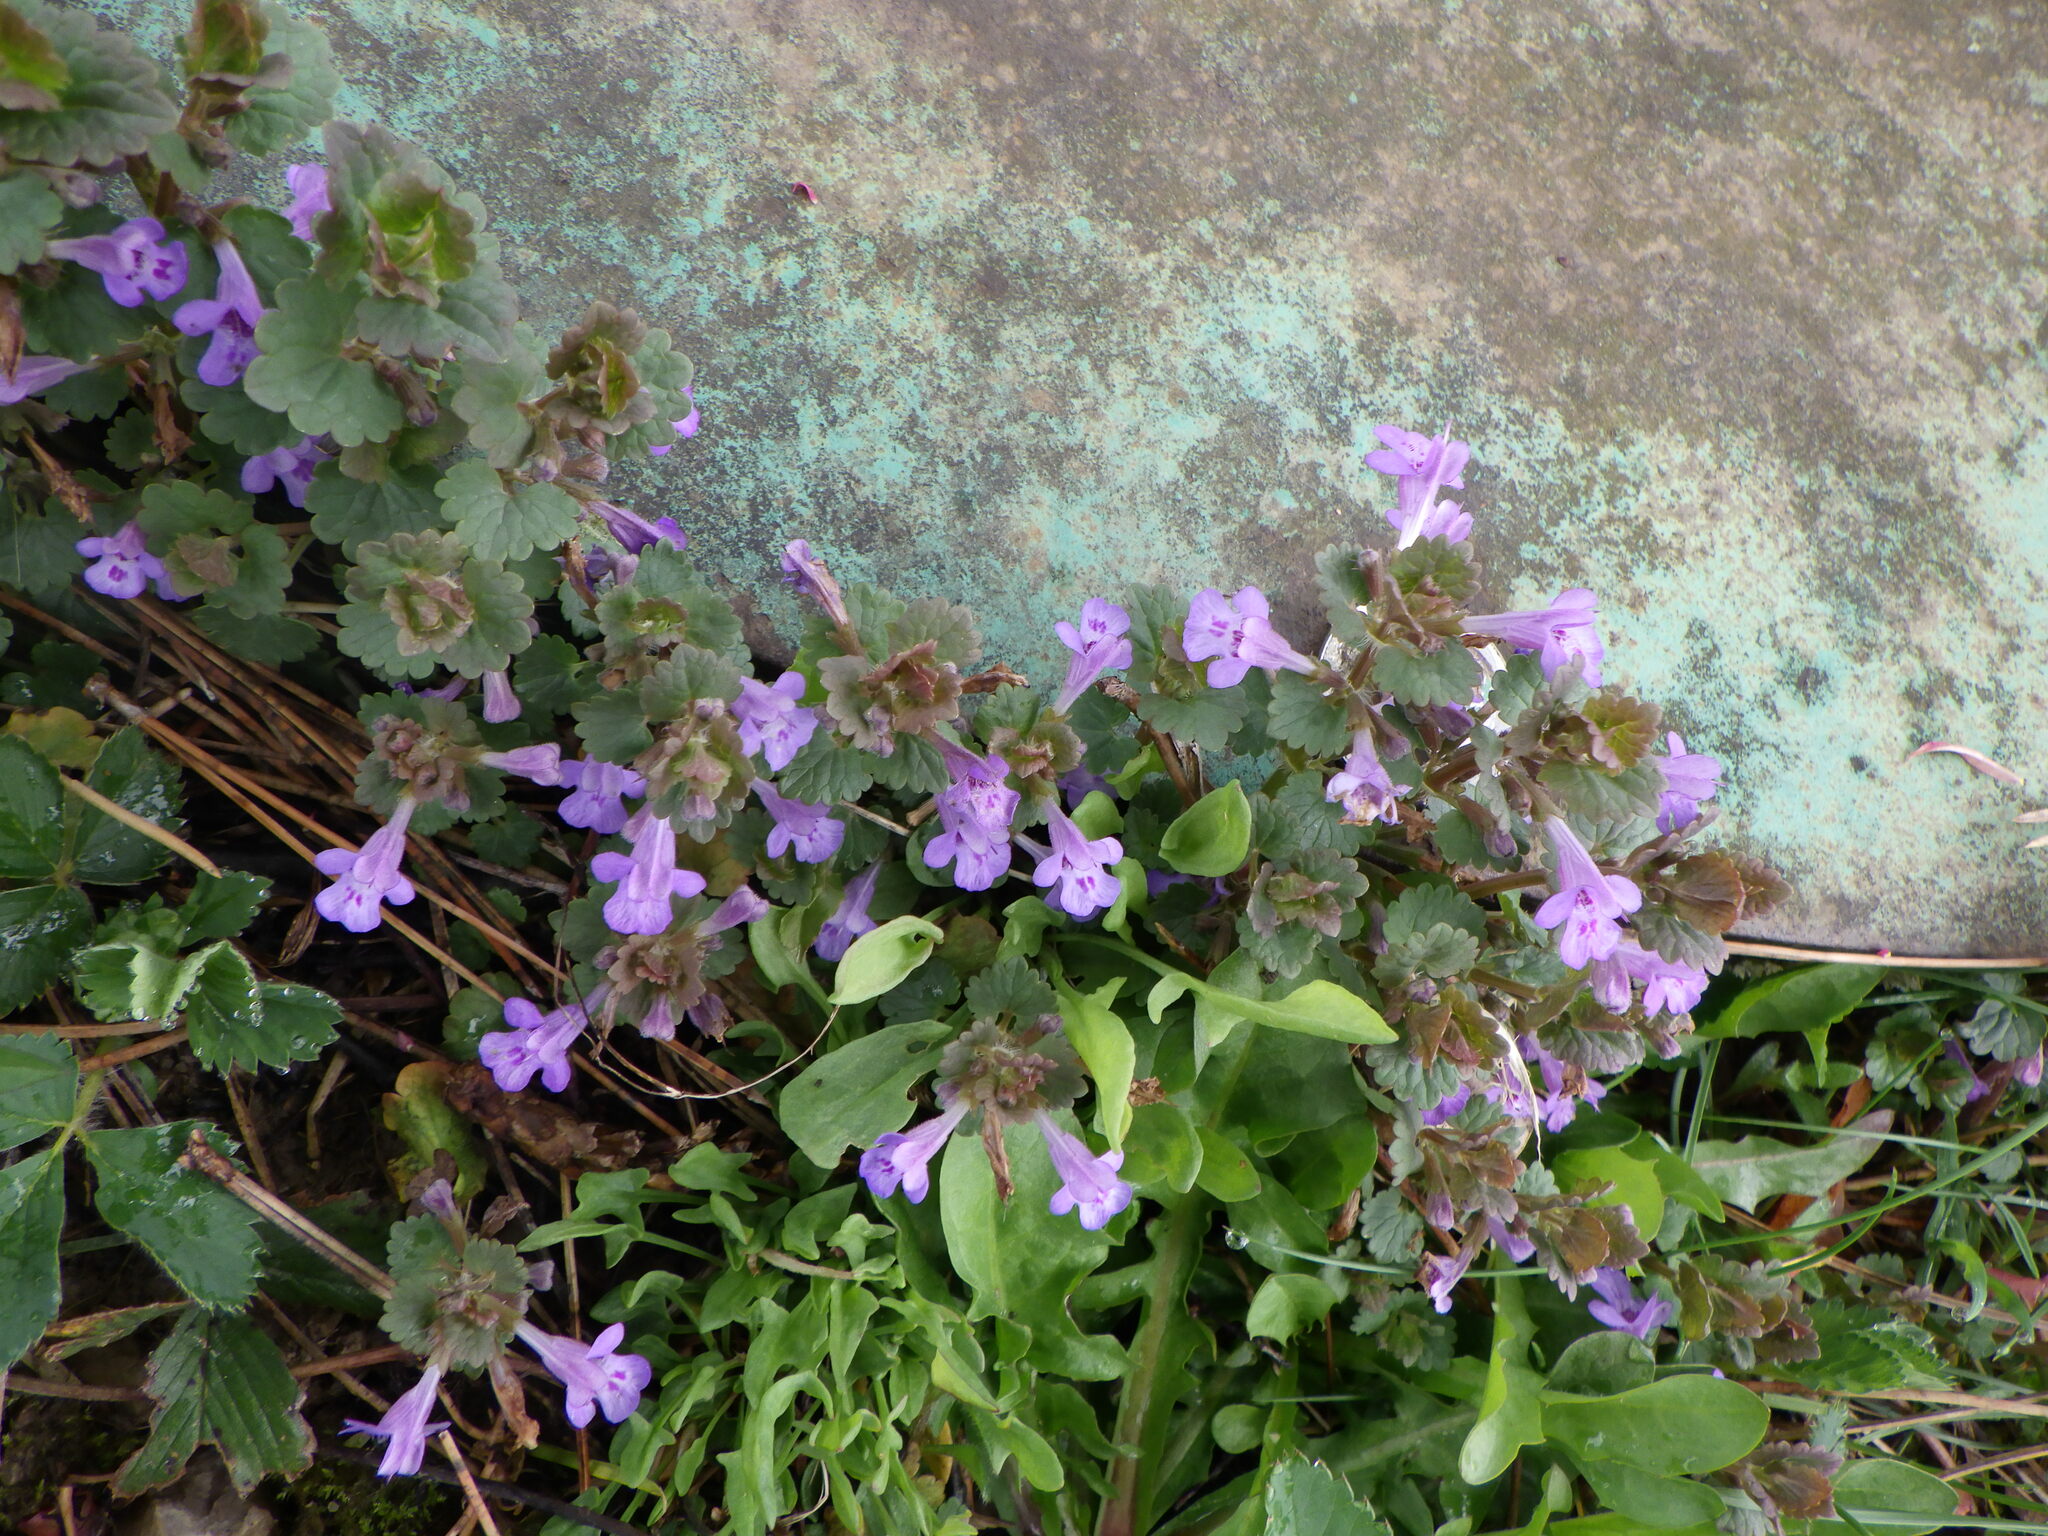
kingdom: Plantae
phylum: Tracheophyta
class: Magnoliopsida
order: Lamiales
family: Lamiaceae
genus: Glechoma
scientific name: Glechoma hederacea
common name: Ground ivy
